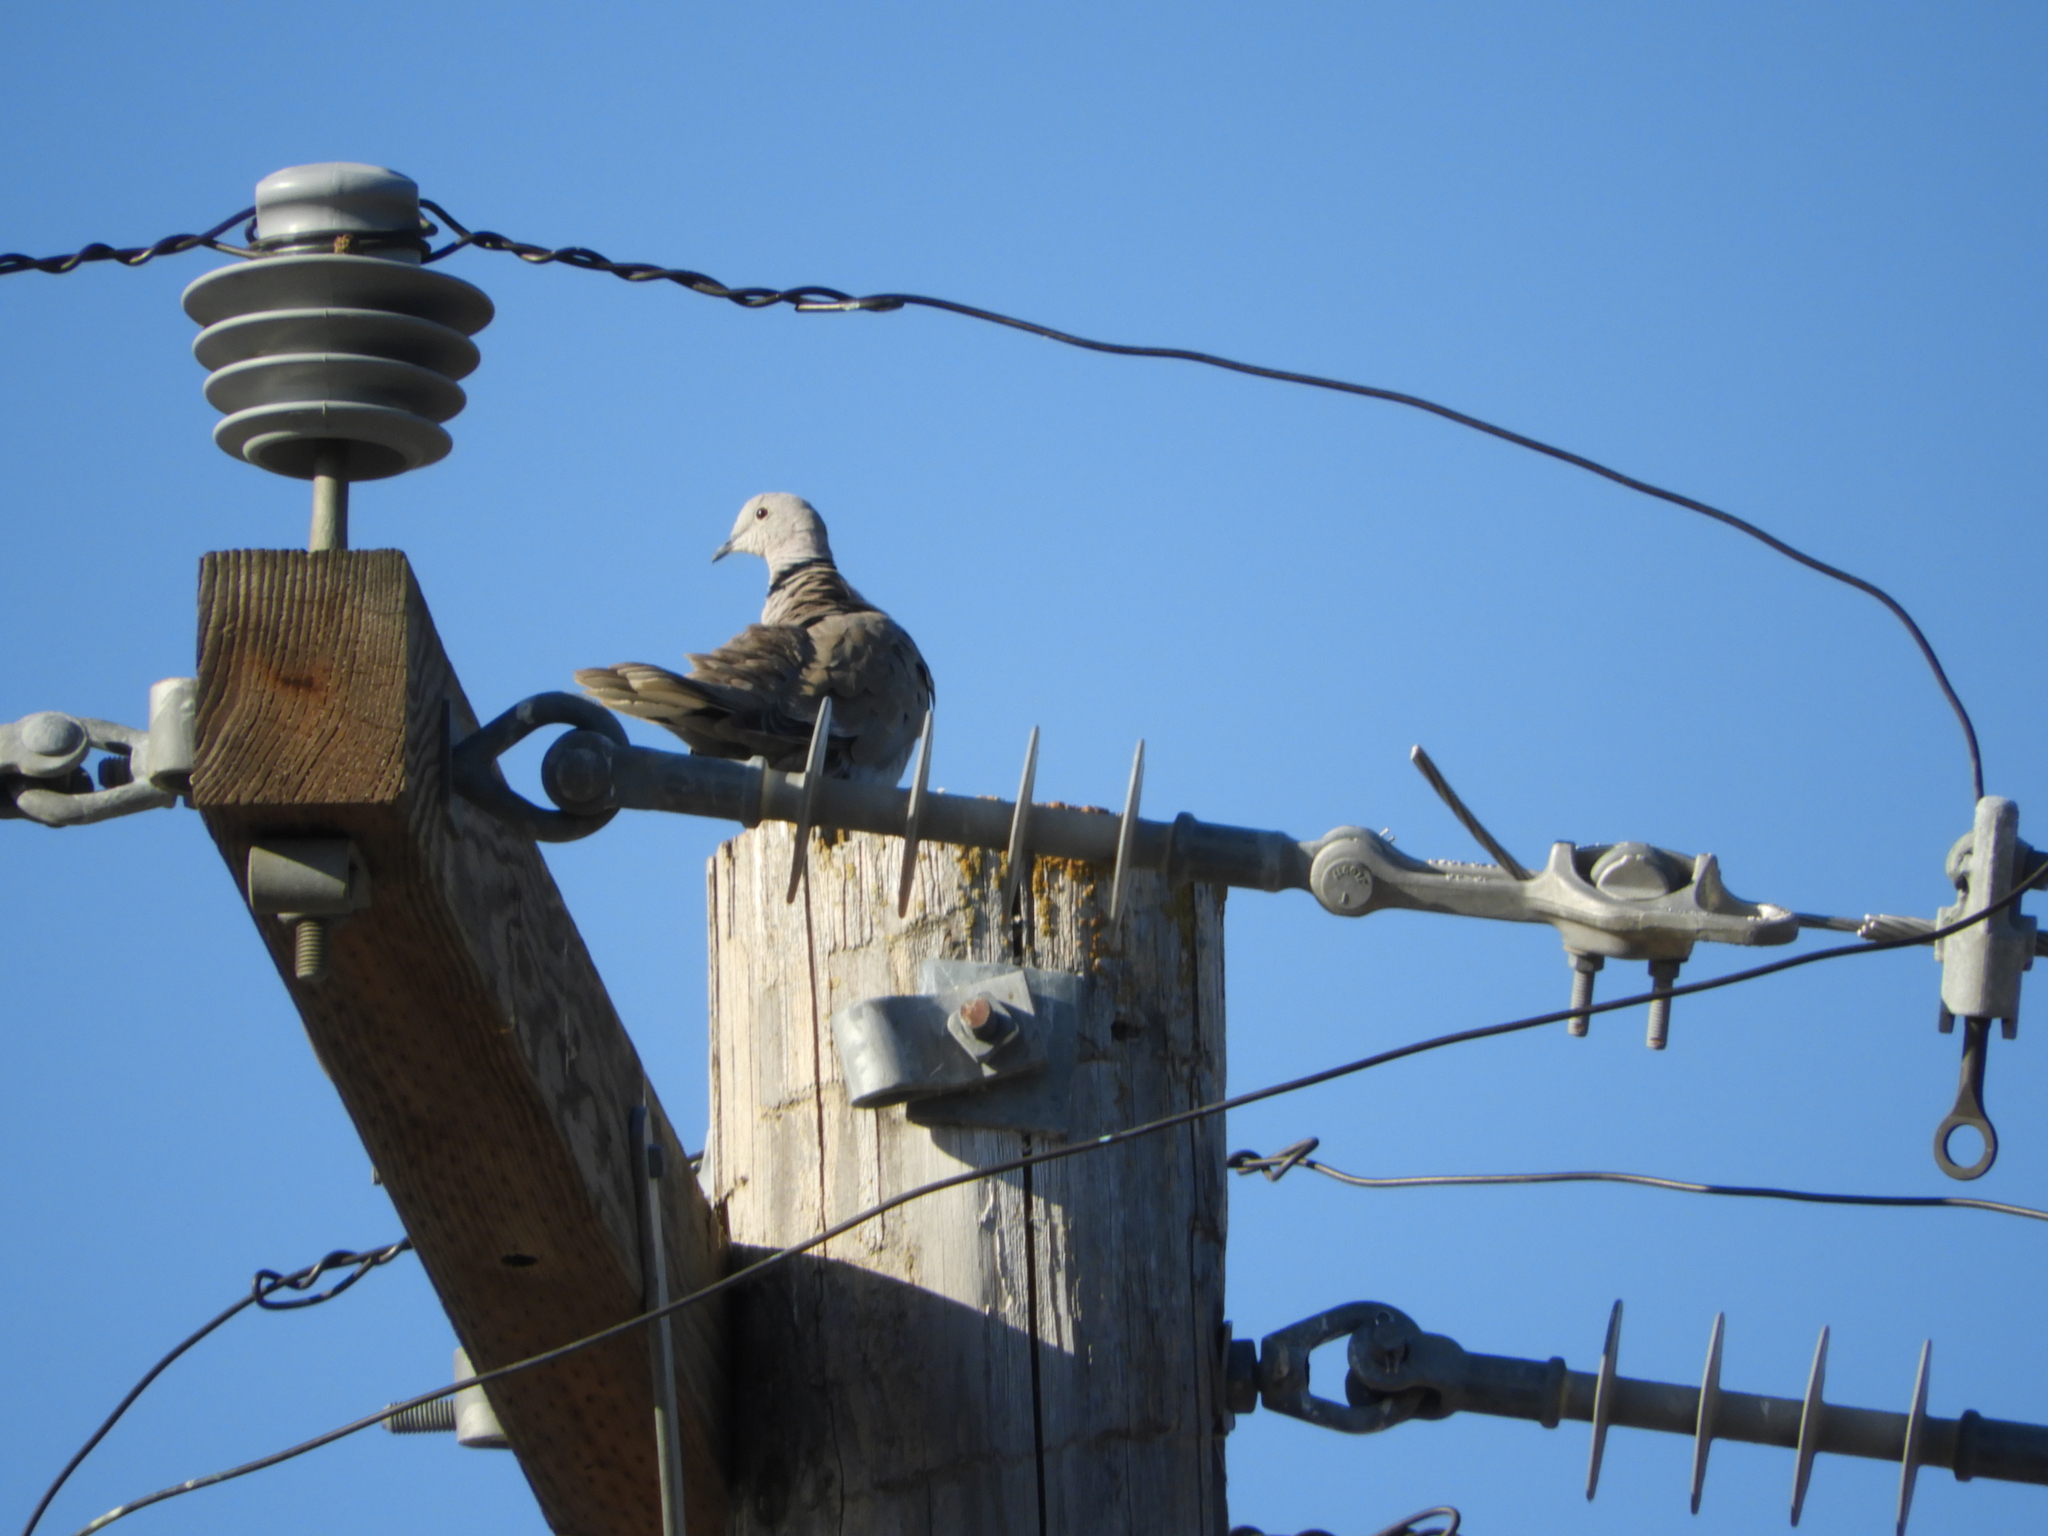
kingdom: Animalia
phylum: Chordata
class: Aves
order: Columbiformes
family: Columbidae
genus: Streptopelia
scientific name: Streptopelia decaocto
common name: Eurasian collared dove
